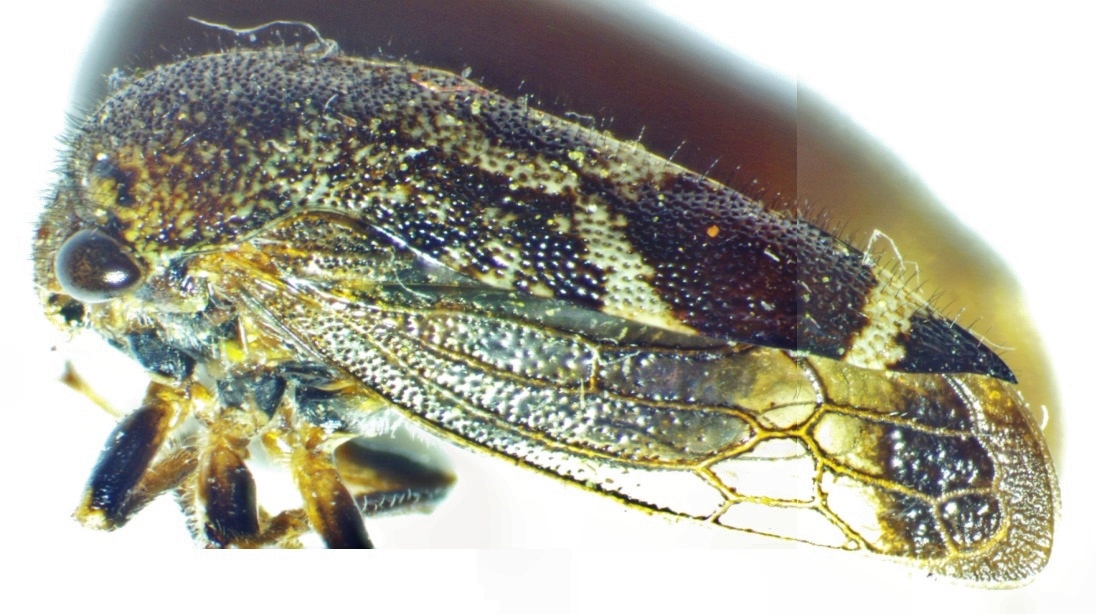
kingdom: Animalia
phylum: Arthropoda
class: Insecta
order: Hemiptera
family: Membracidae
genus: Ophiderma
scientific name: Ophiderma pubescens
